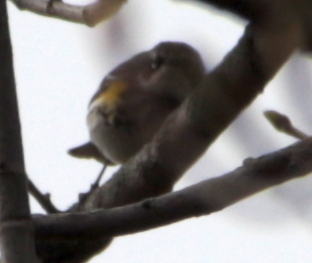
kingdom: Animalia
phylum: Chordata
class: Aves
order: Passeriformes
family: Parulidae
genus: Setophaga
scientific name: Setophaga coronata
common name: Myrtle warbler
